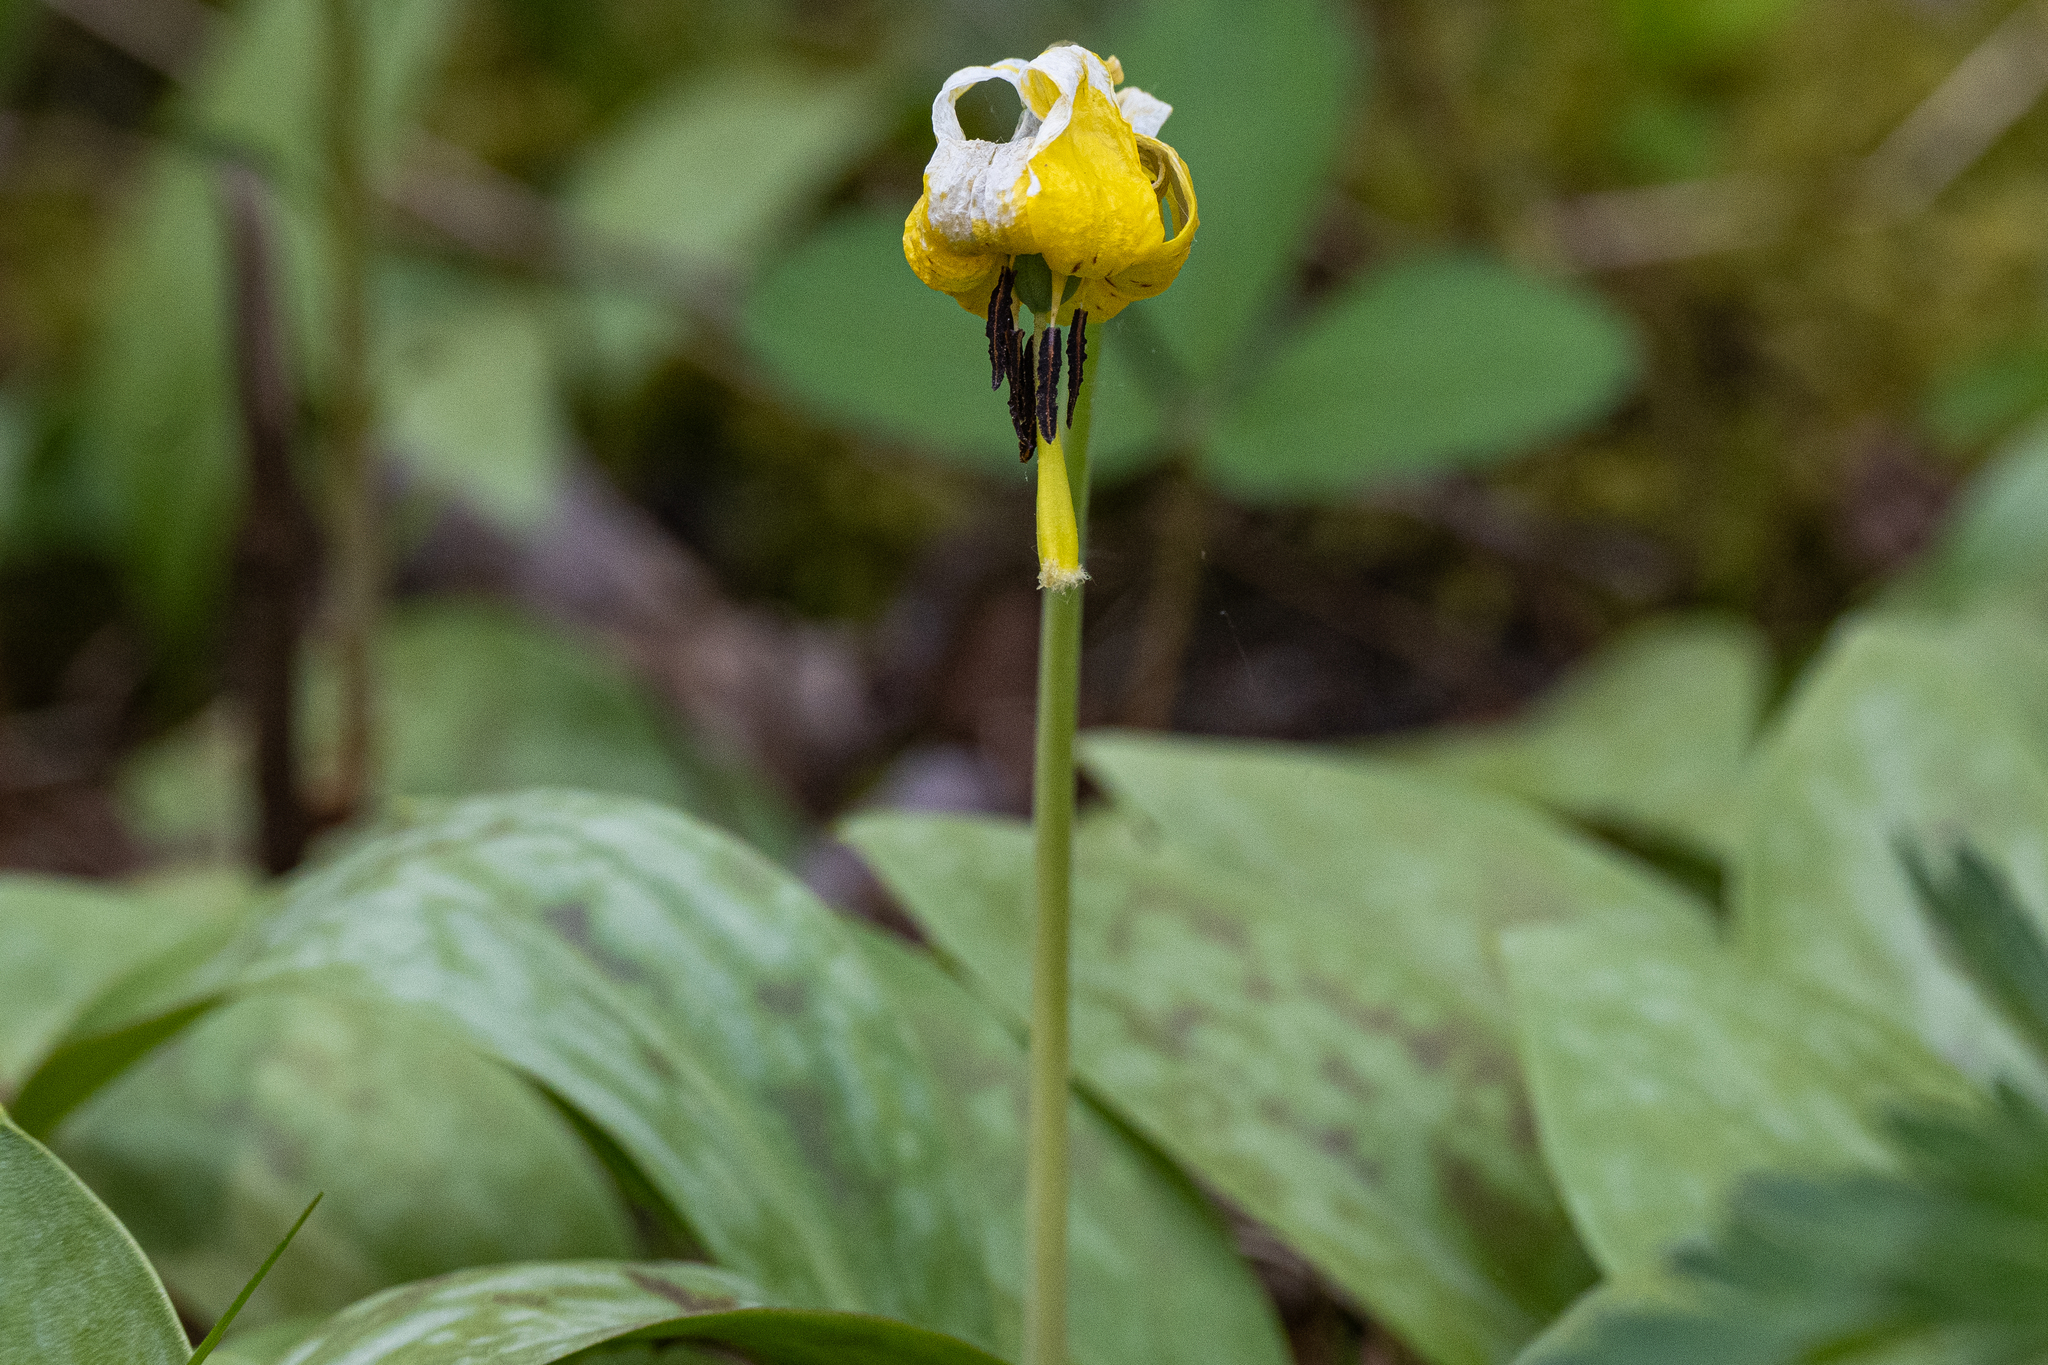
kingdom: Plantae
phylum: Tracheophyta
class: Liliopsida
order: Liliales
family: Liliaceae
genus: Erythronium
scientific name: Erythronium americanum
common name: Yellow adder's-tongue
